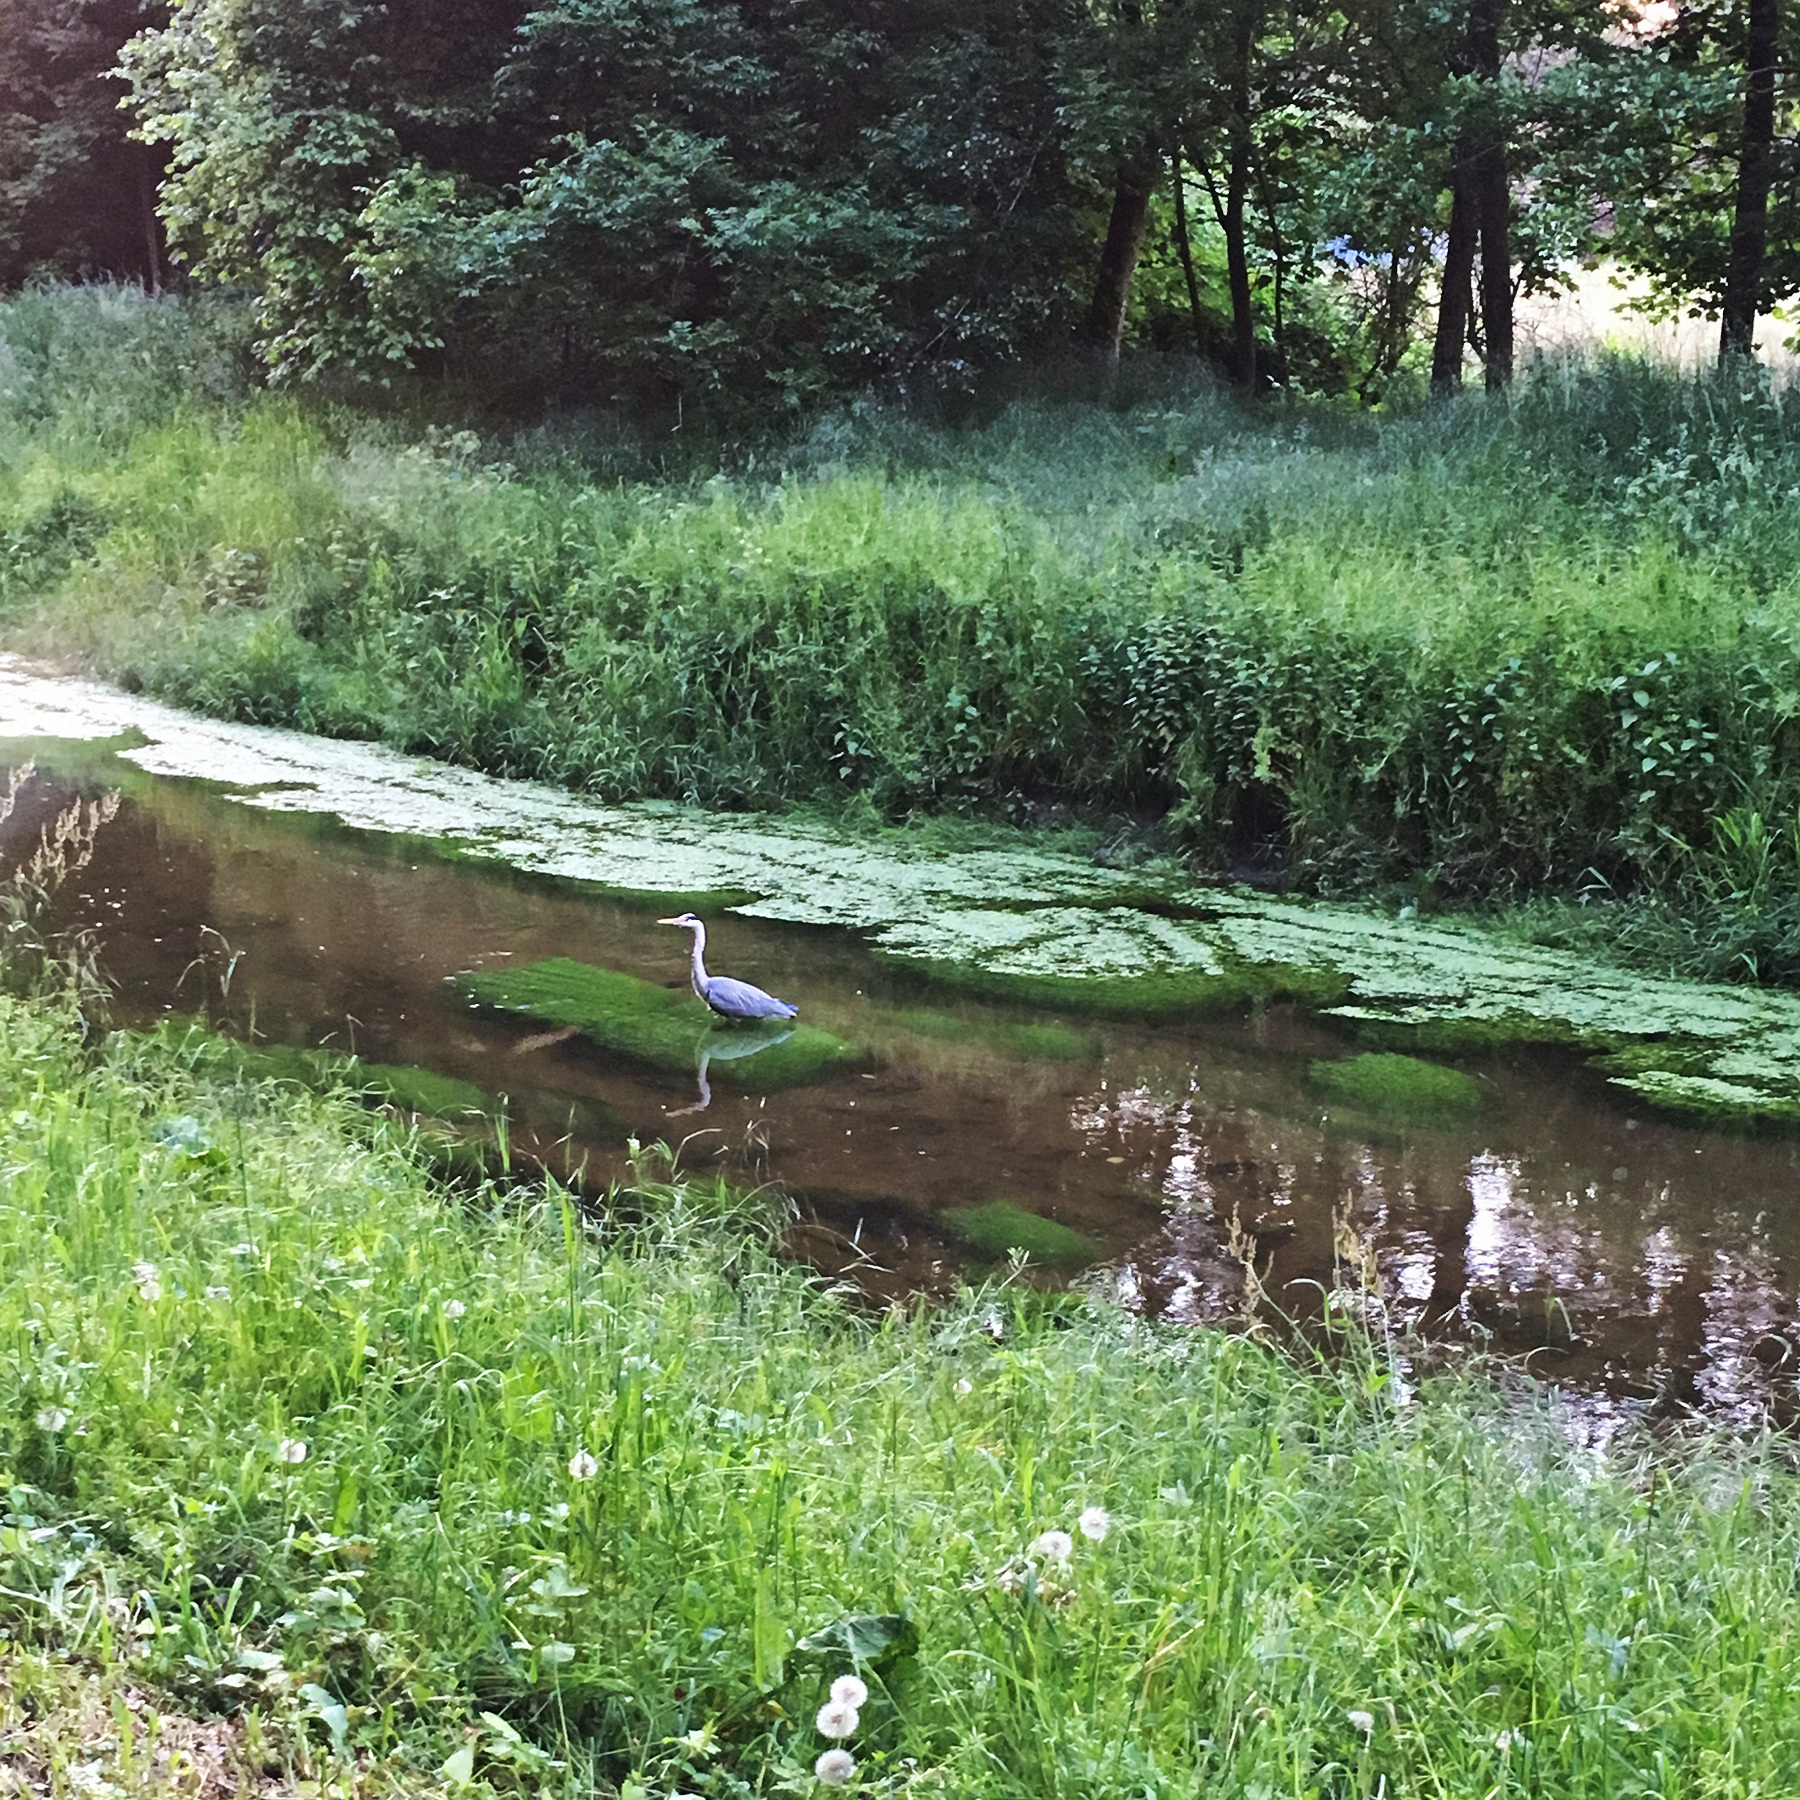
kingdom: Animalia
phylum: Chordata
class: Aves
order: Pelecaniformes
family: Ardeidae
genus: Ardea
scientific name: Ardea cinerea
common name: Grey heron
